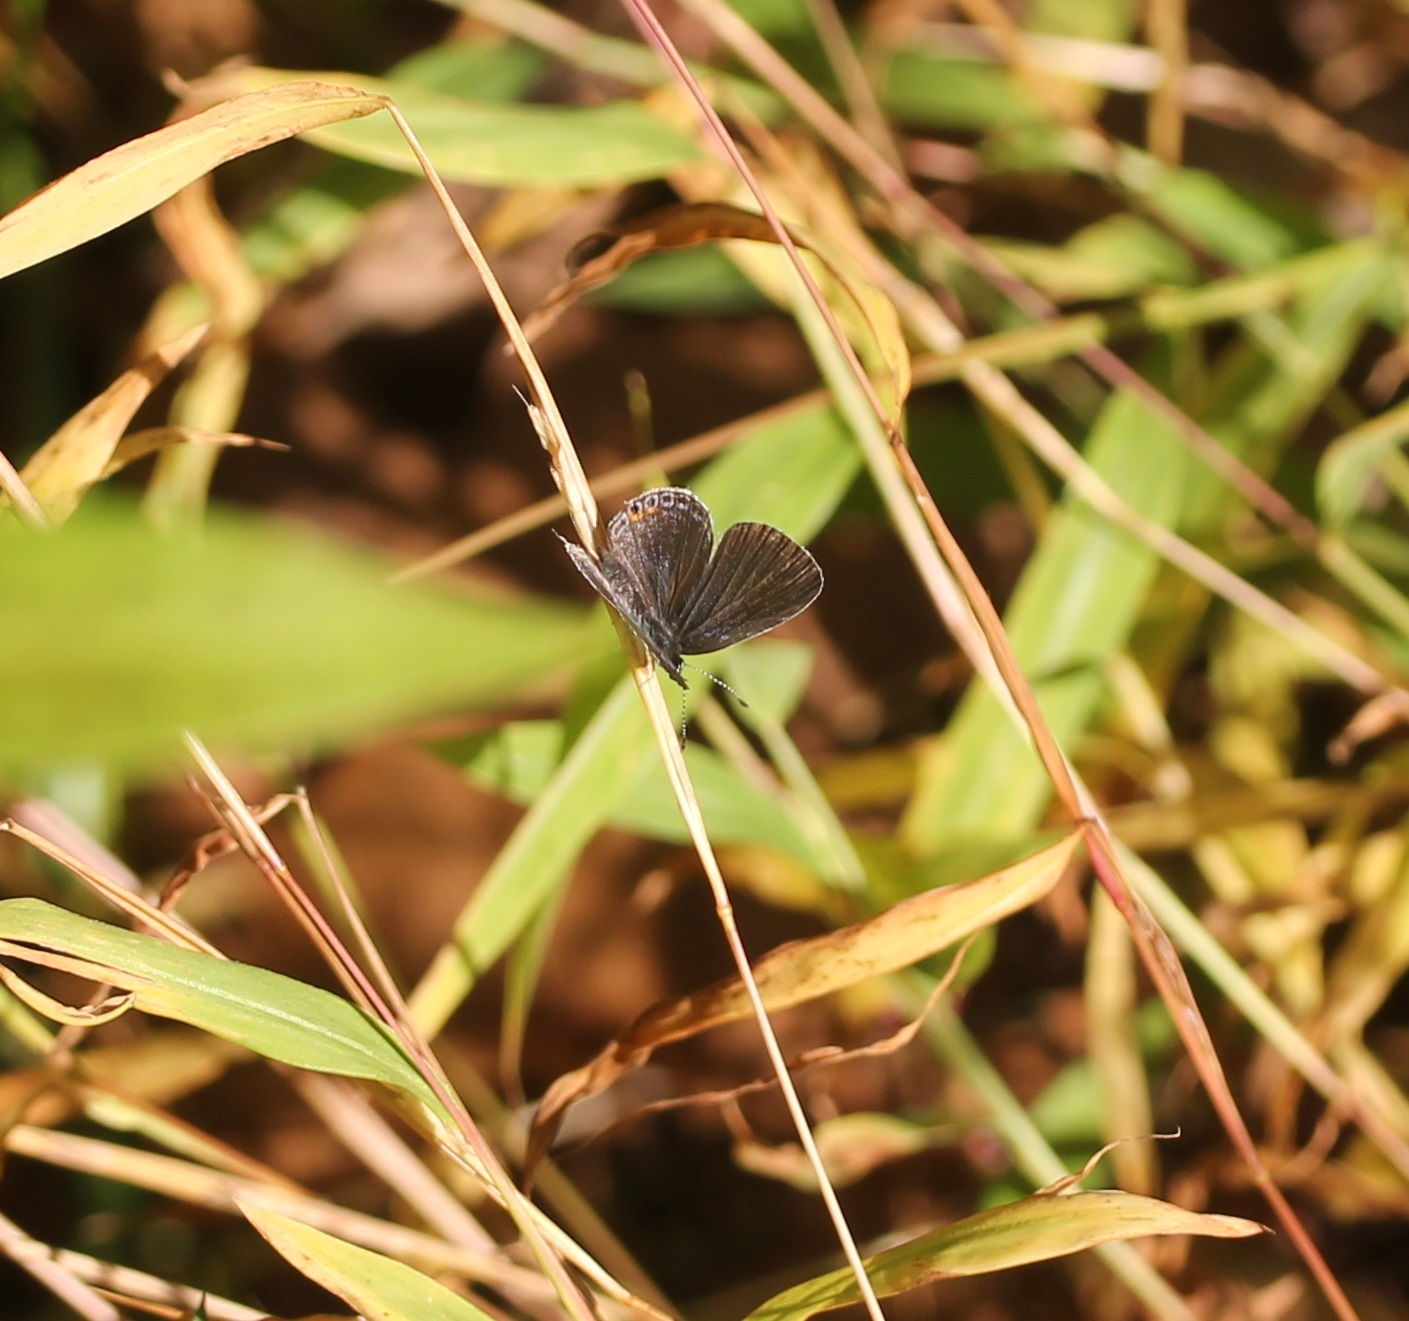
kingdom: Animalia
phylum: Arthropoda
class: Insecta
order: Lepidoptera
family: Lycaenidae
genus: Elkalyce
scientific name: Elkalyce comyntas
